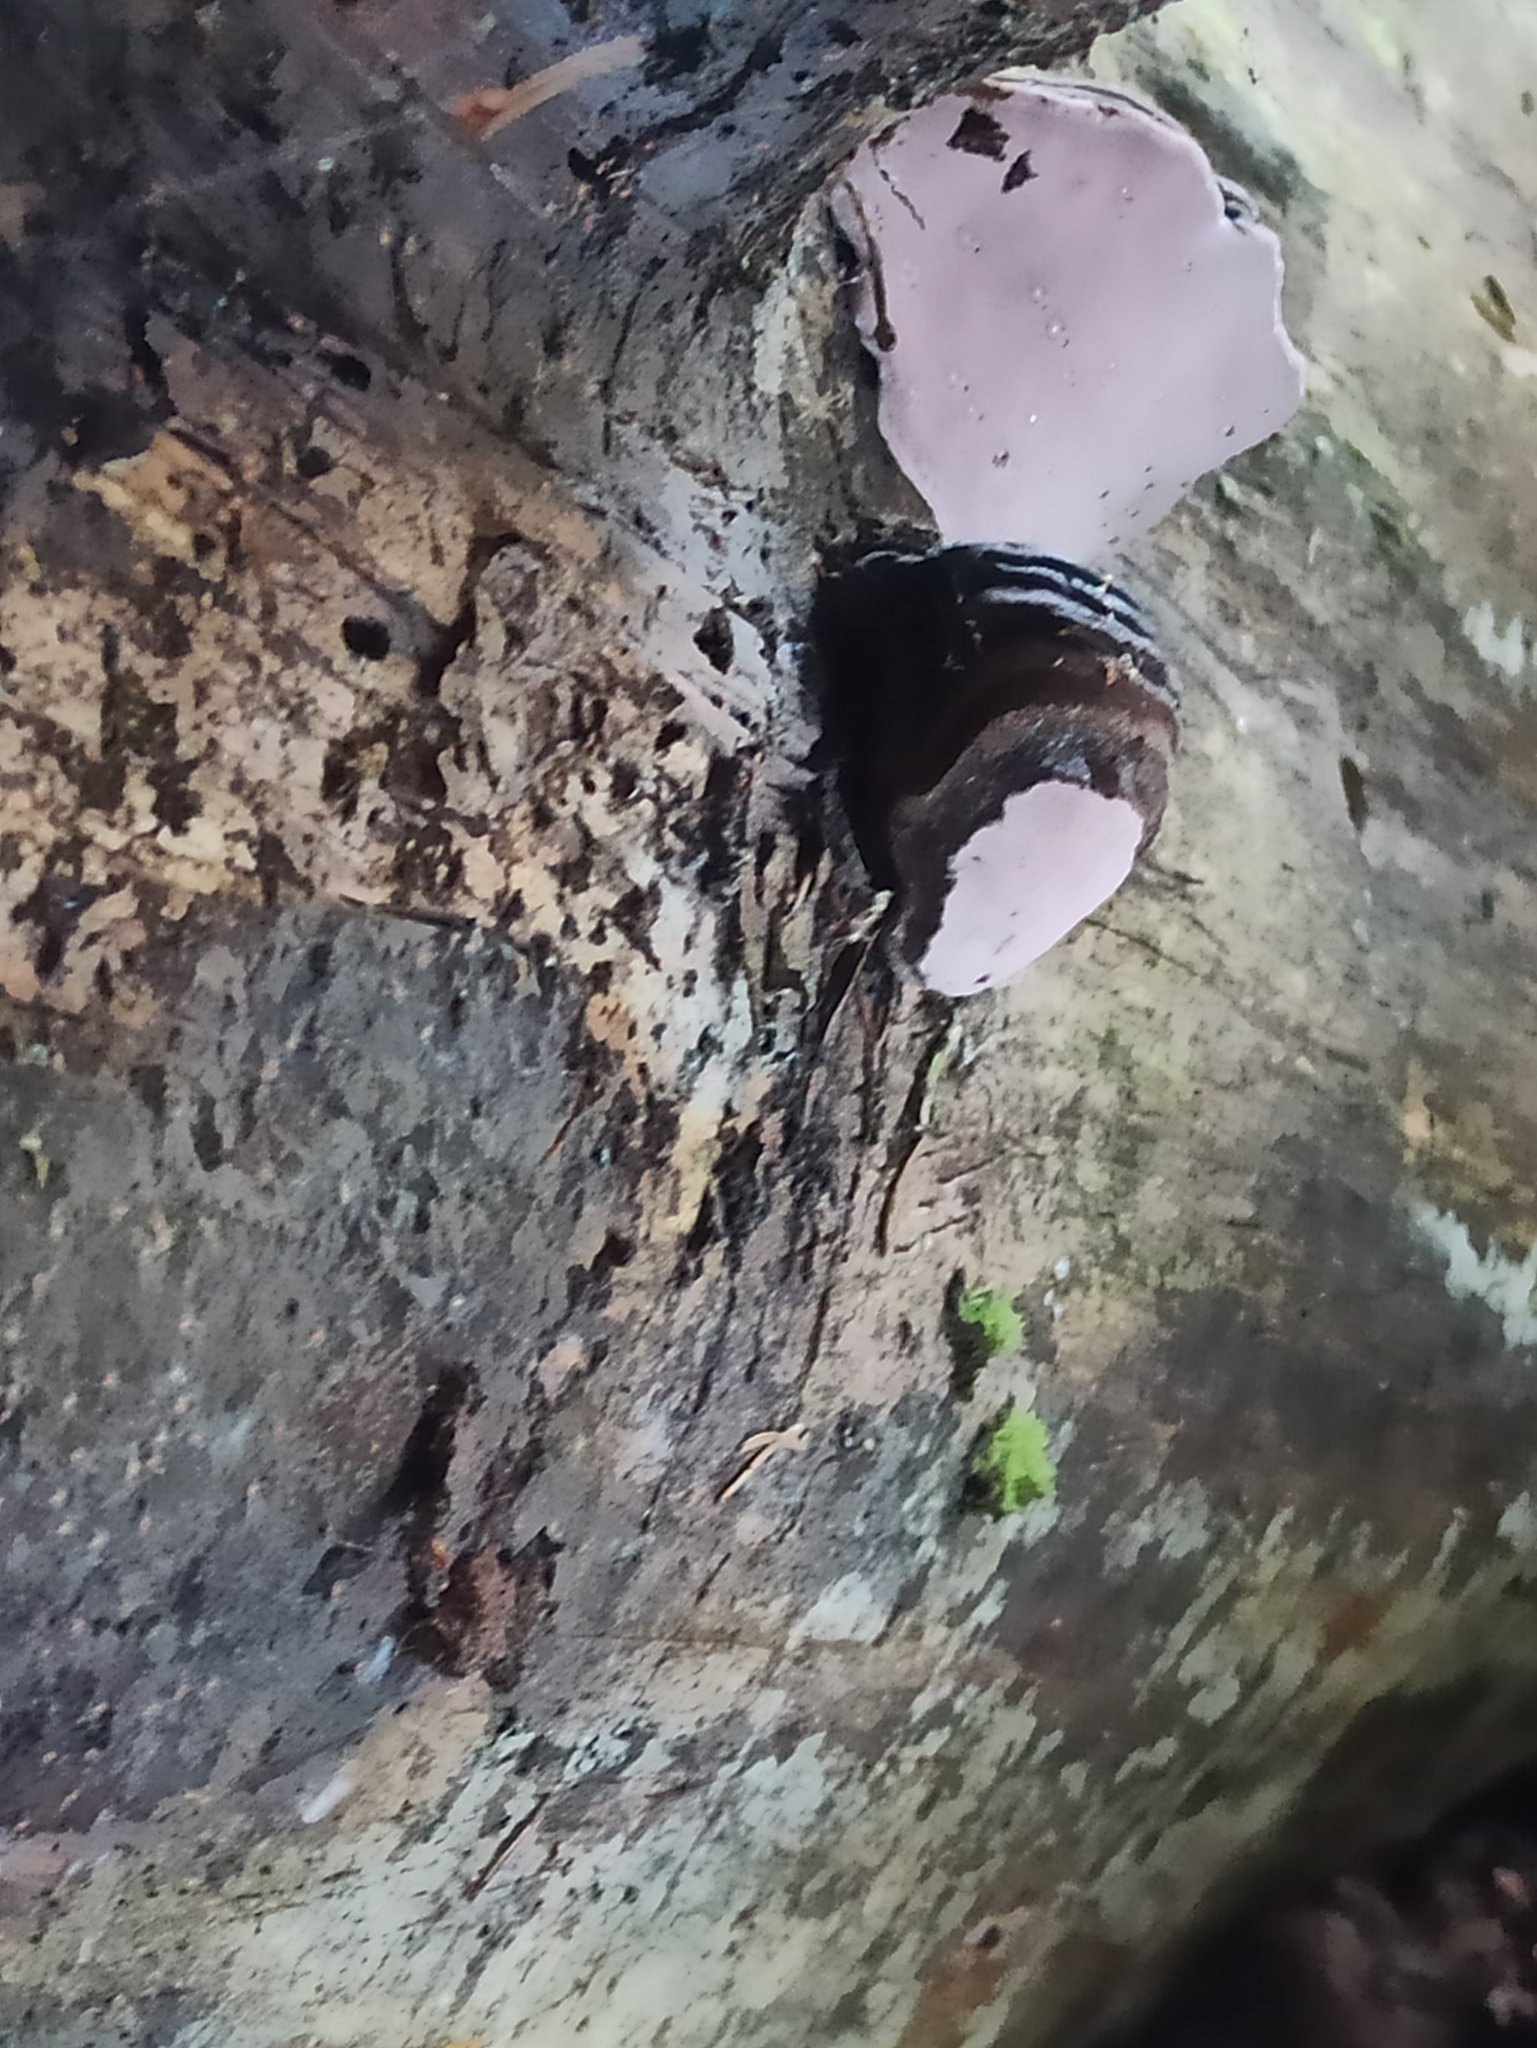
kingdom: Fungi
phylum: Basidiomycota
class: Agaricomycetes
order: Polyporales
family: Fomitopsidaceae
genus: Rhodofomes
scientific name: Rhodofomes roseus
